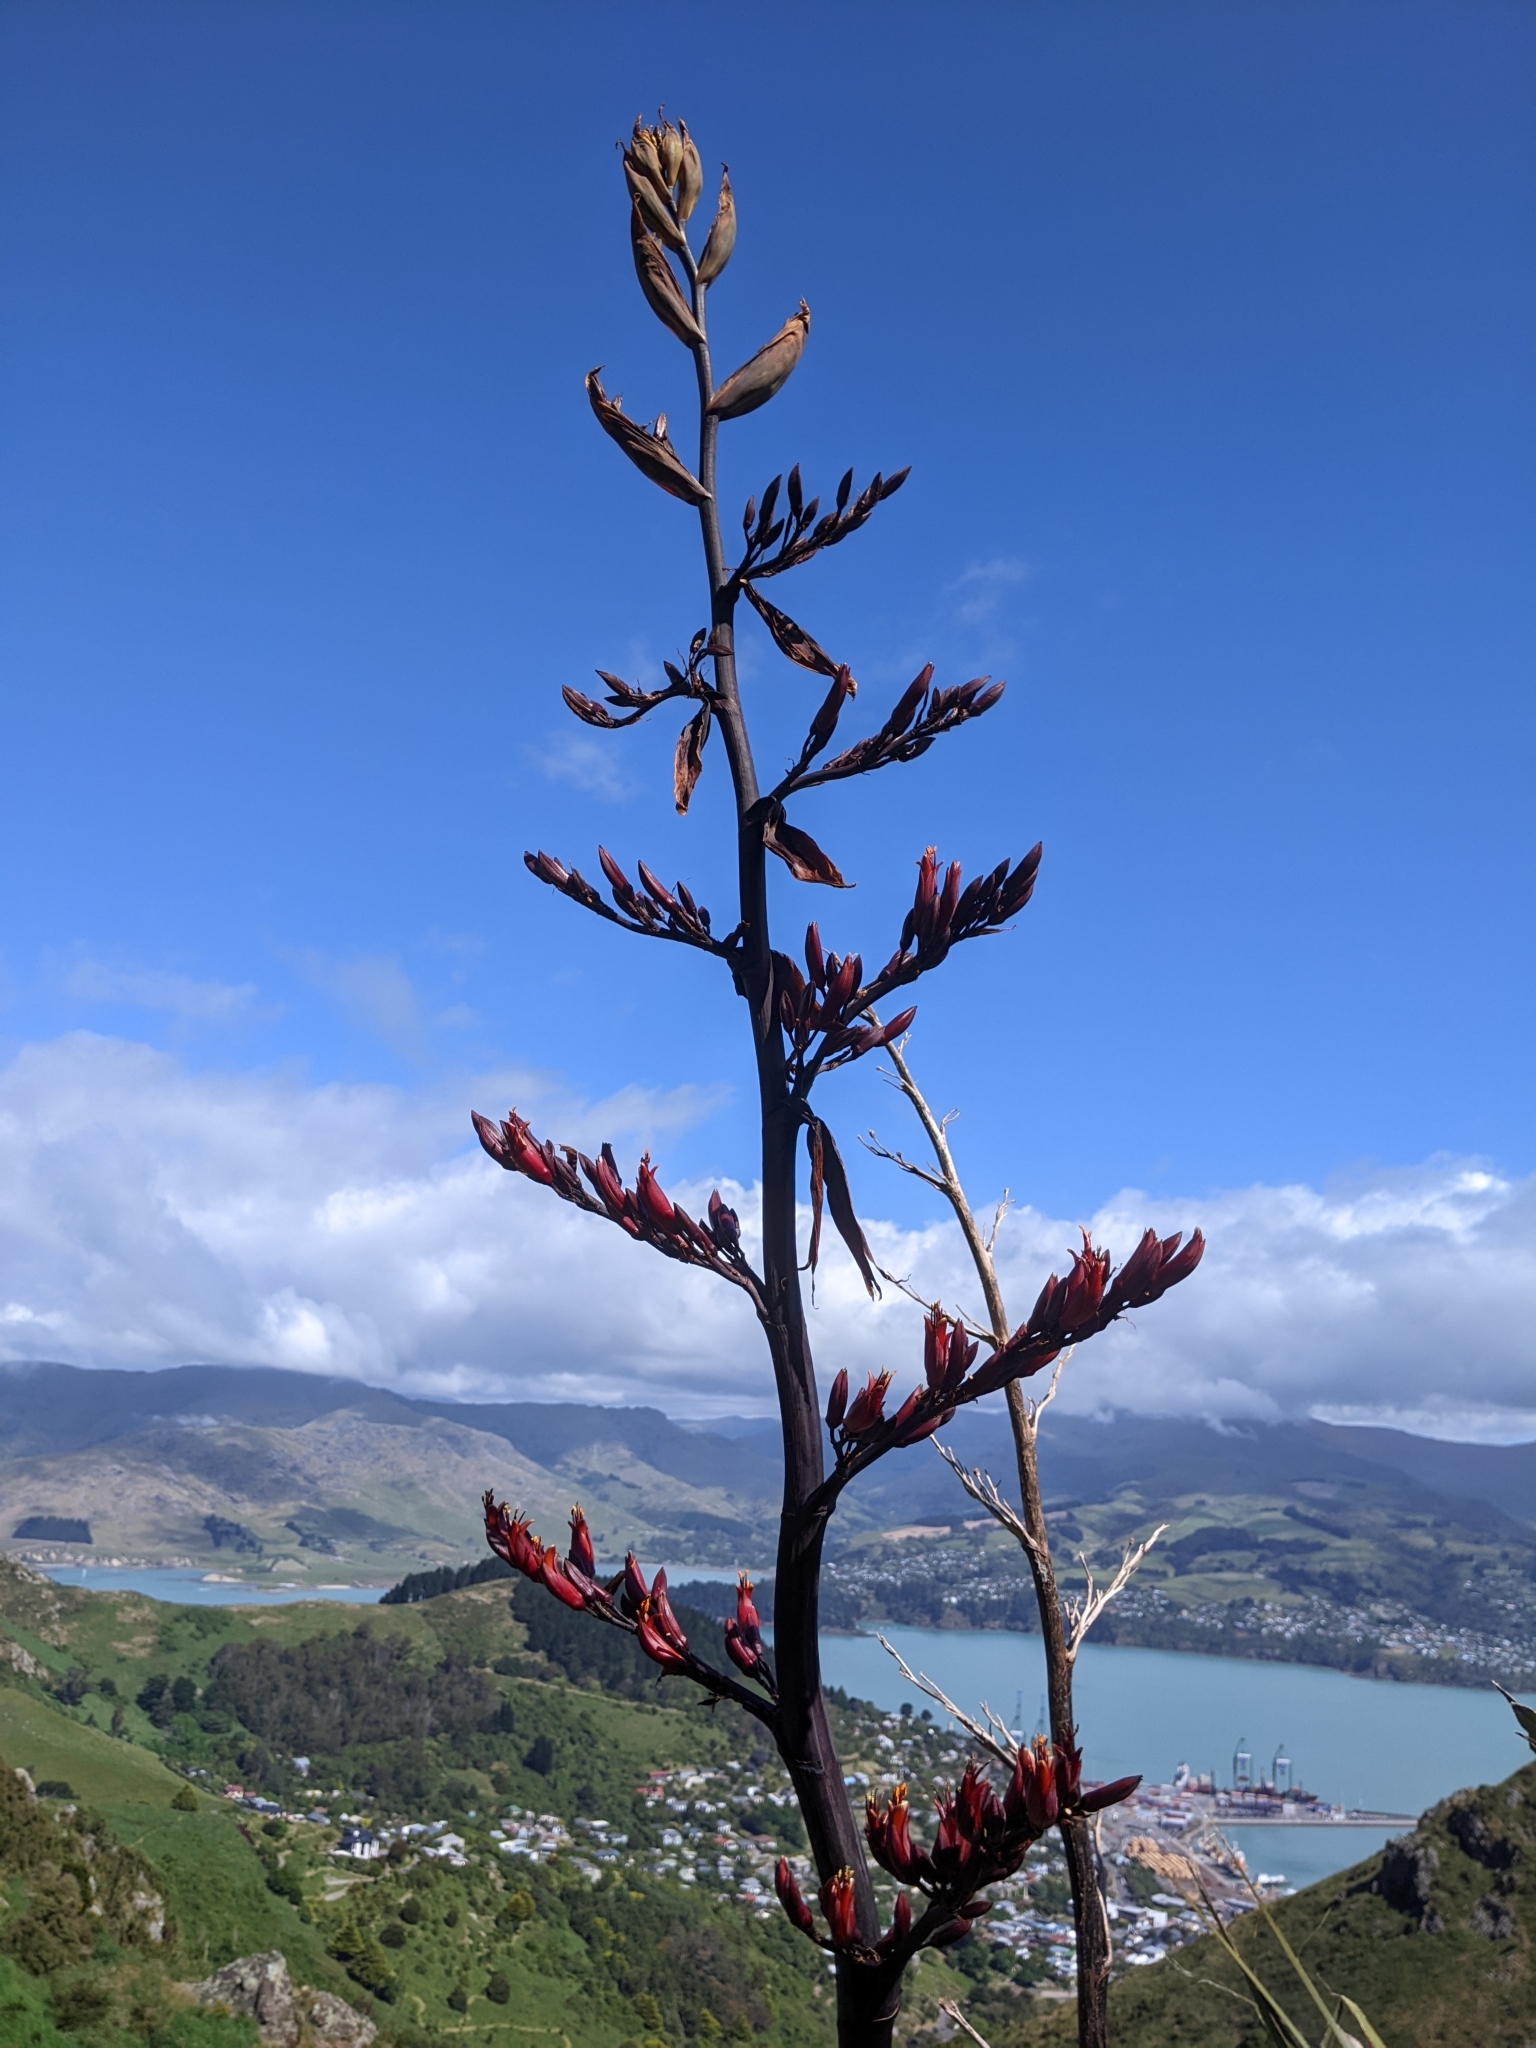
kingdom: Plantae
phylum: Tracheophyta
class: Liliopsida
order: Asparagales
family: Asphodelaceae
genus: Phormium
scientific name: Phormium tenax
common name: New zealand flax
